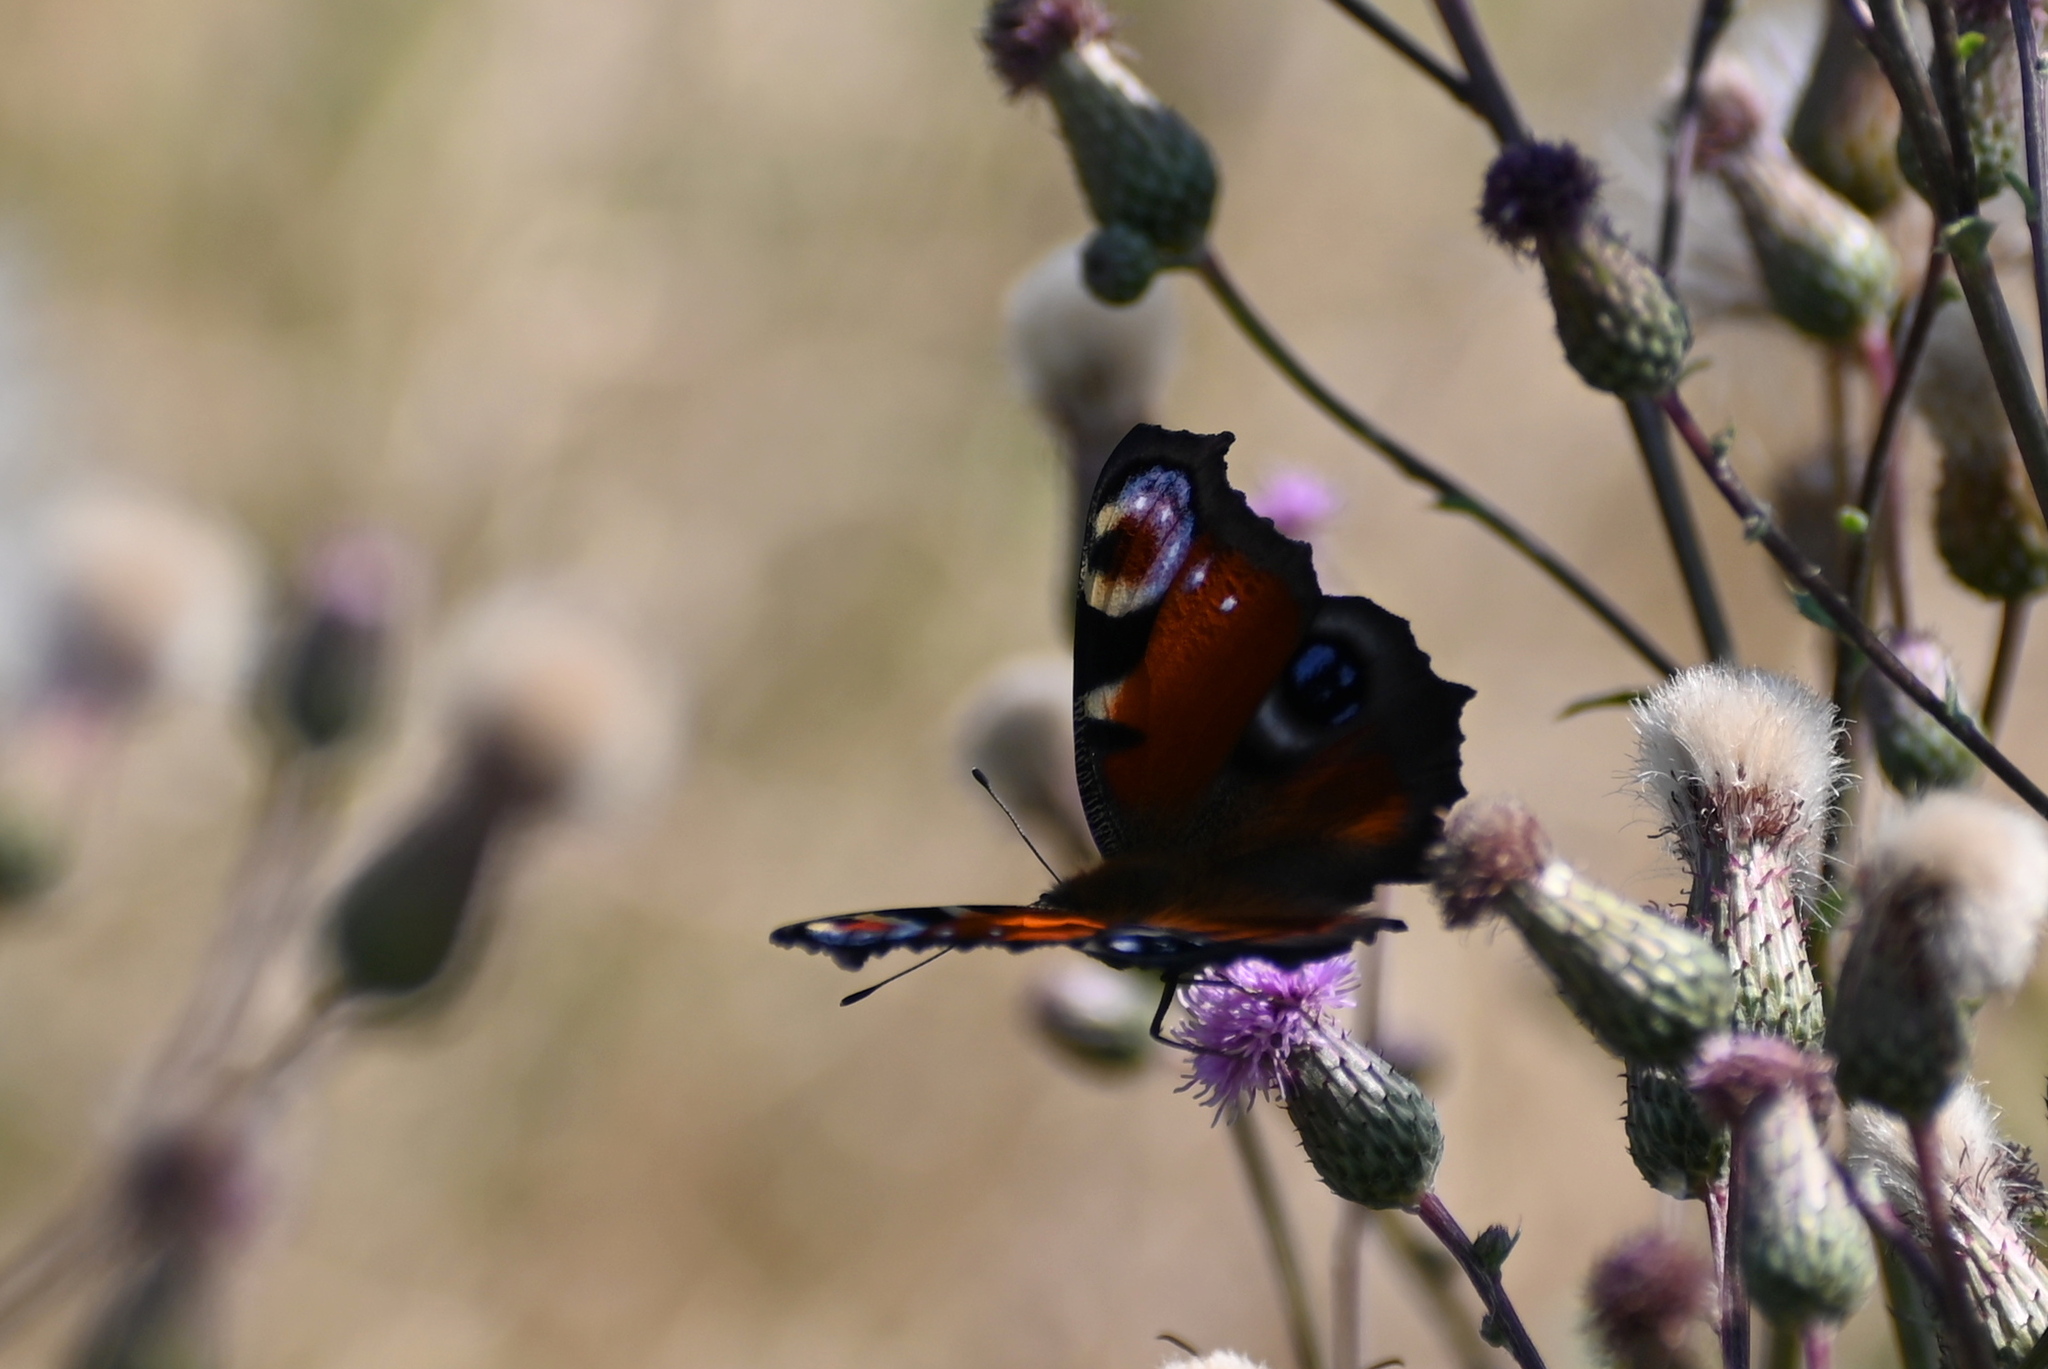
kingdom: Animalia
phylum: Arthropoda
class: Insecta
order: Lepidoptera
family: Nymphalidae
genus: Aglais
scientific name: Aglais io
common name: Peacock
